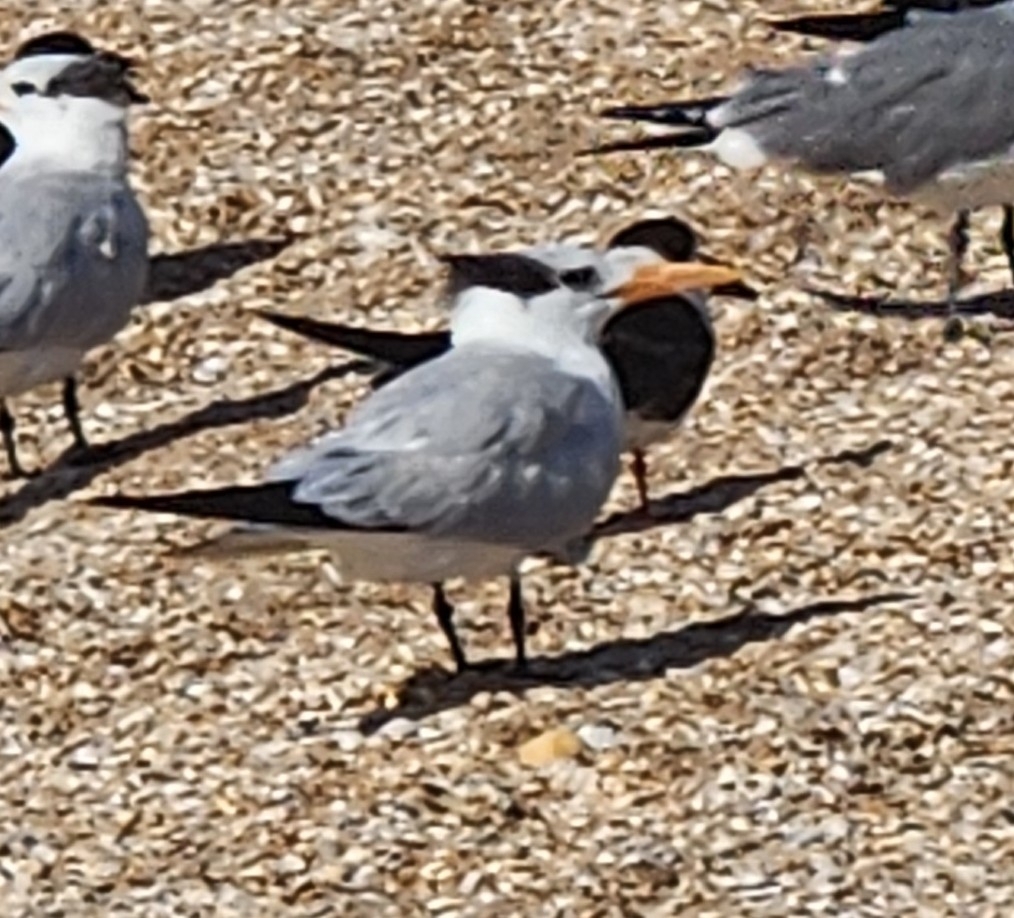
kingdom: Animalia
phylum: Chordata
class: Aves
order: Charadriiformes
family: Laridae
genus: Thalasseus
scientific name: Thalasseus maximus
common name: Royal tern
